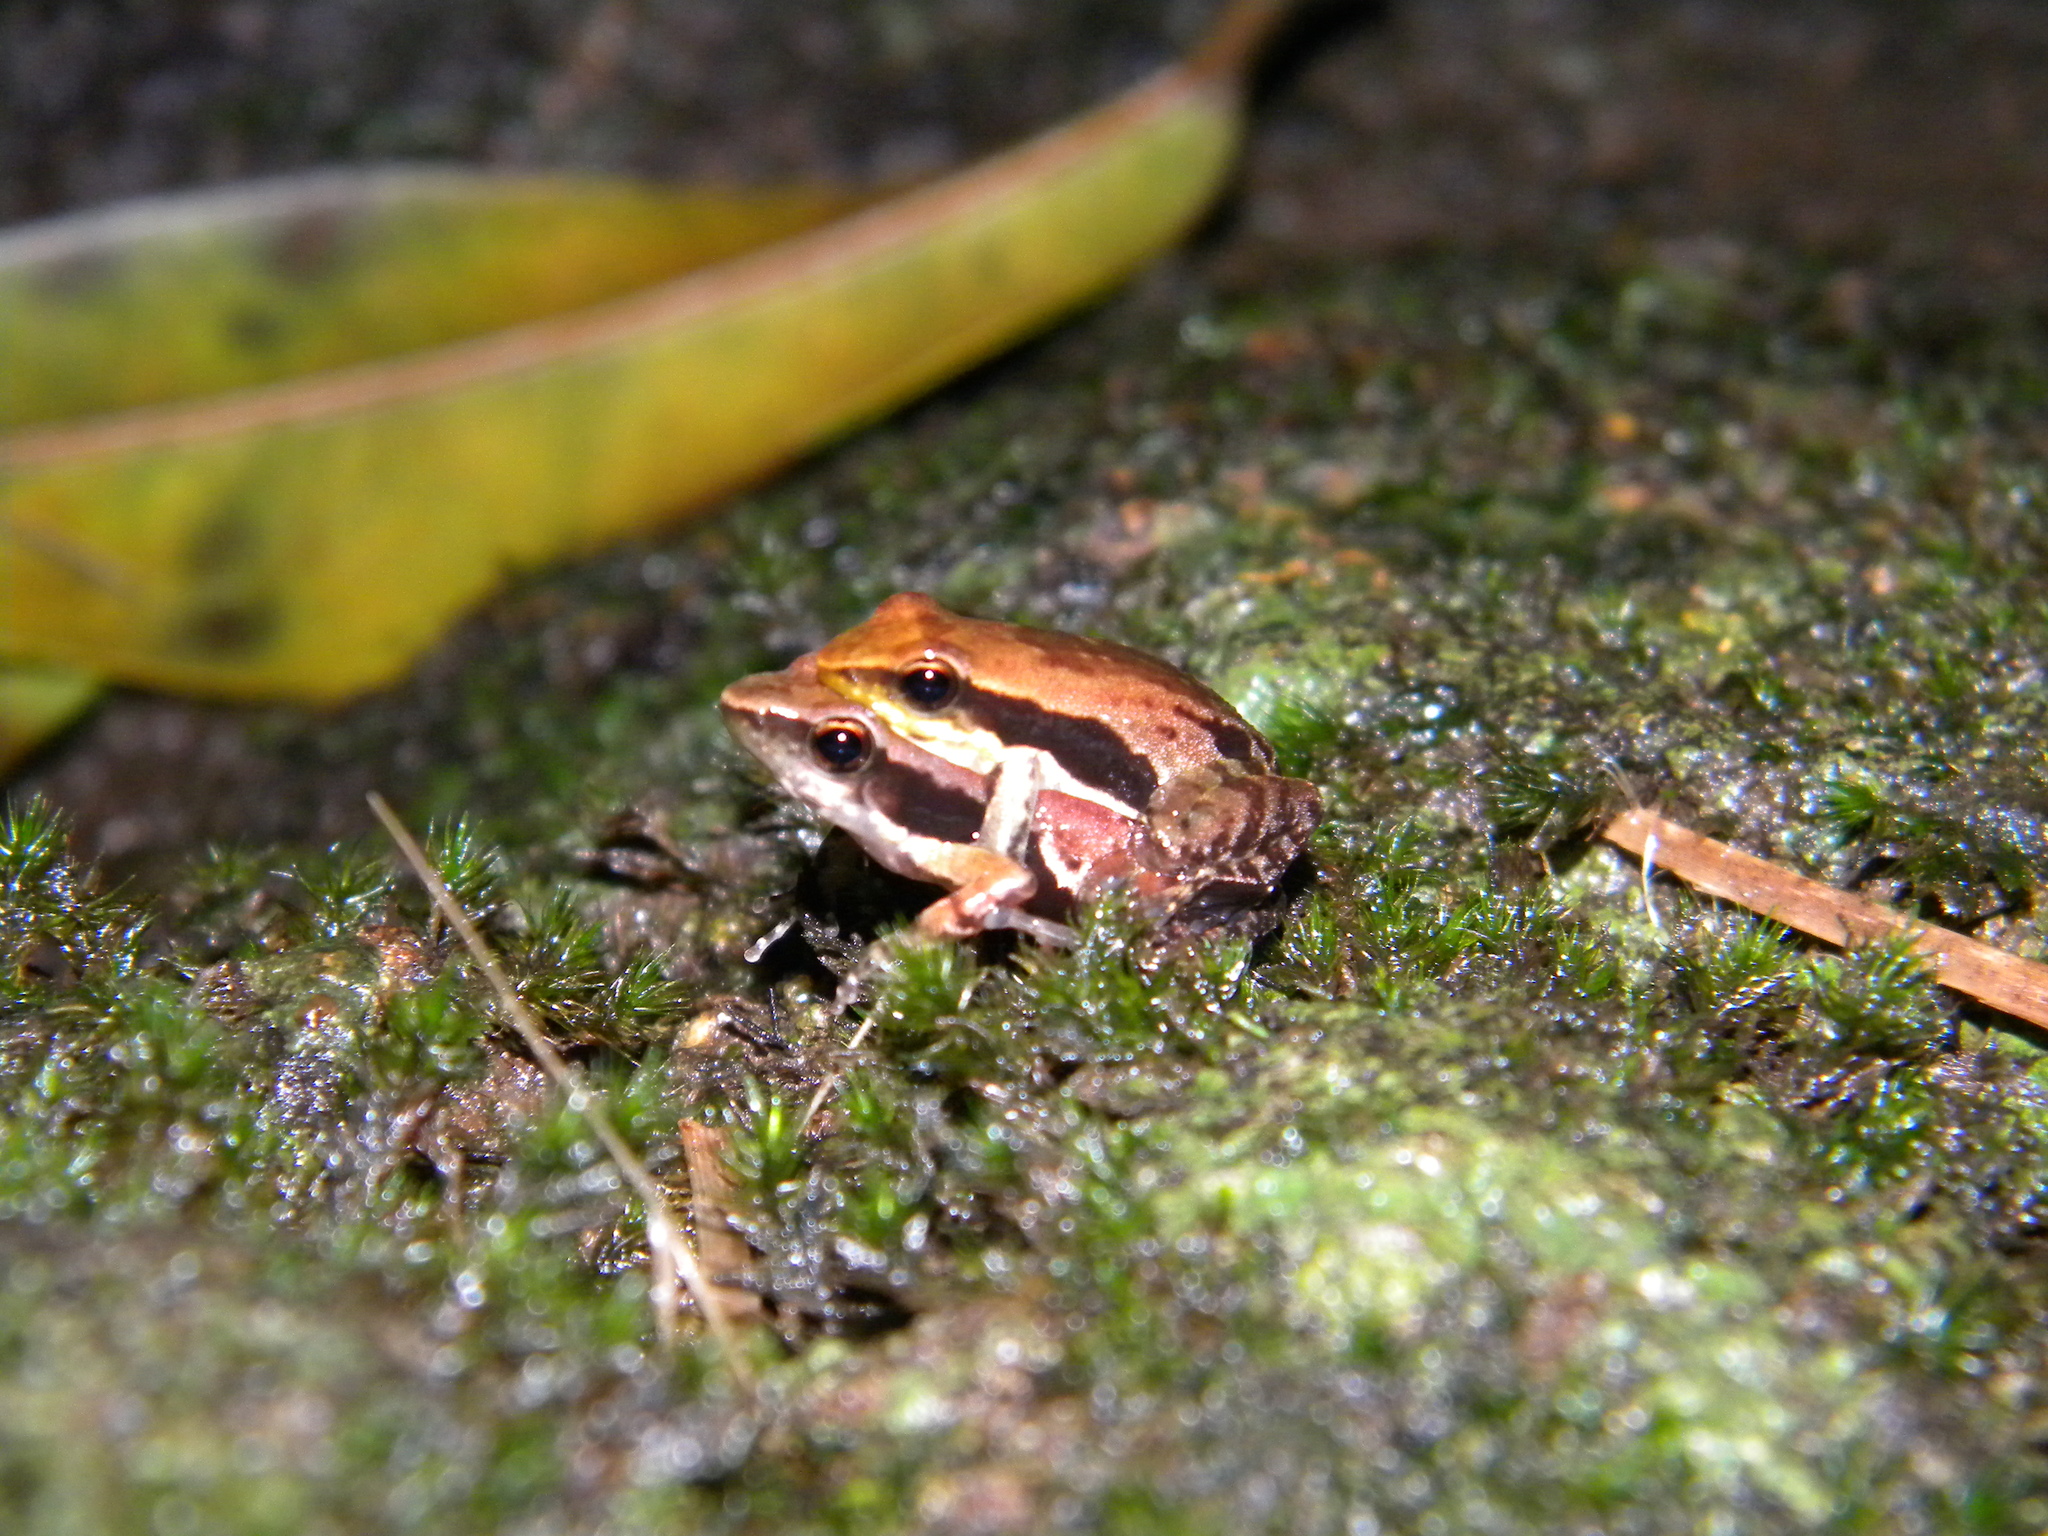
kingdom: Animalia
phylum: Chordata
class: Amphibia
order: Anura
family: Micrixalidae
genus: Micrixalus
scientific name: Micrixalus sali
